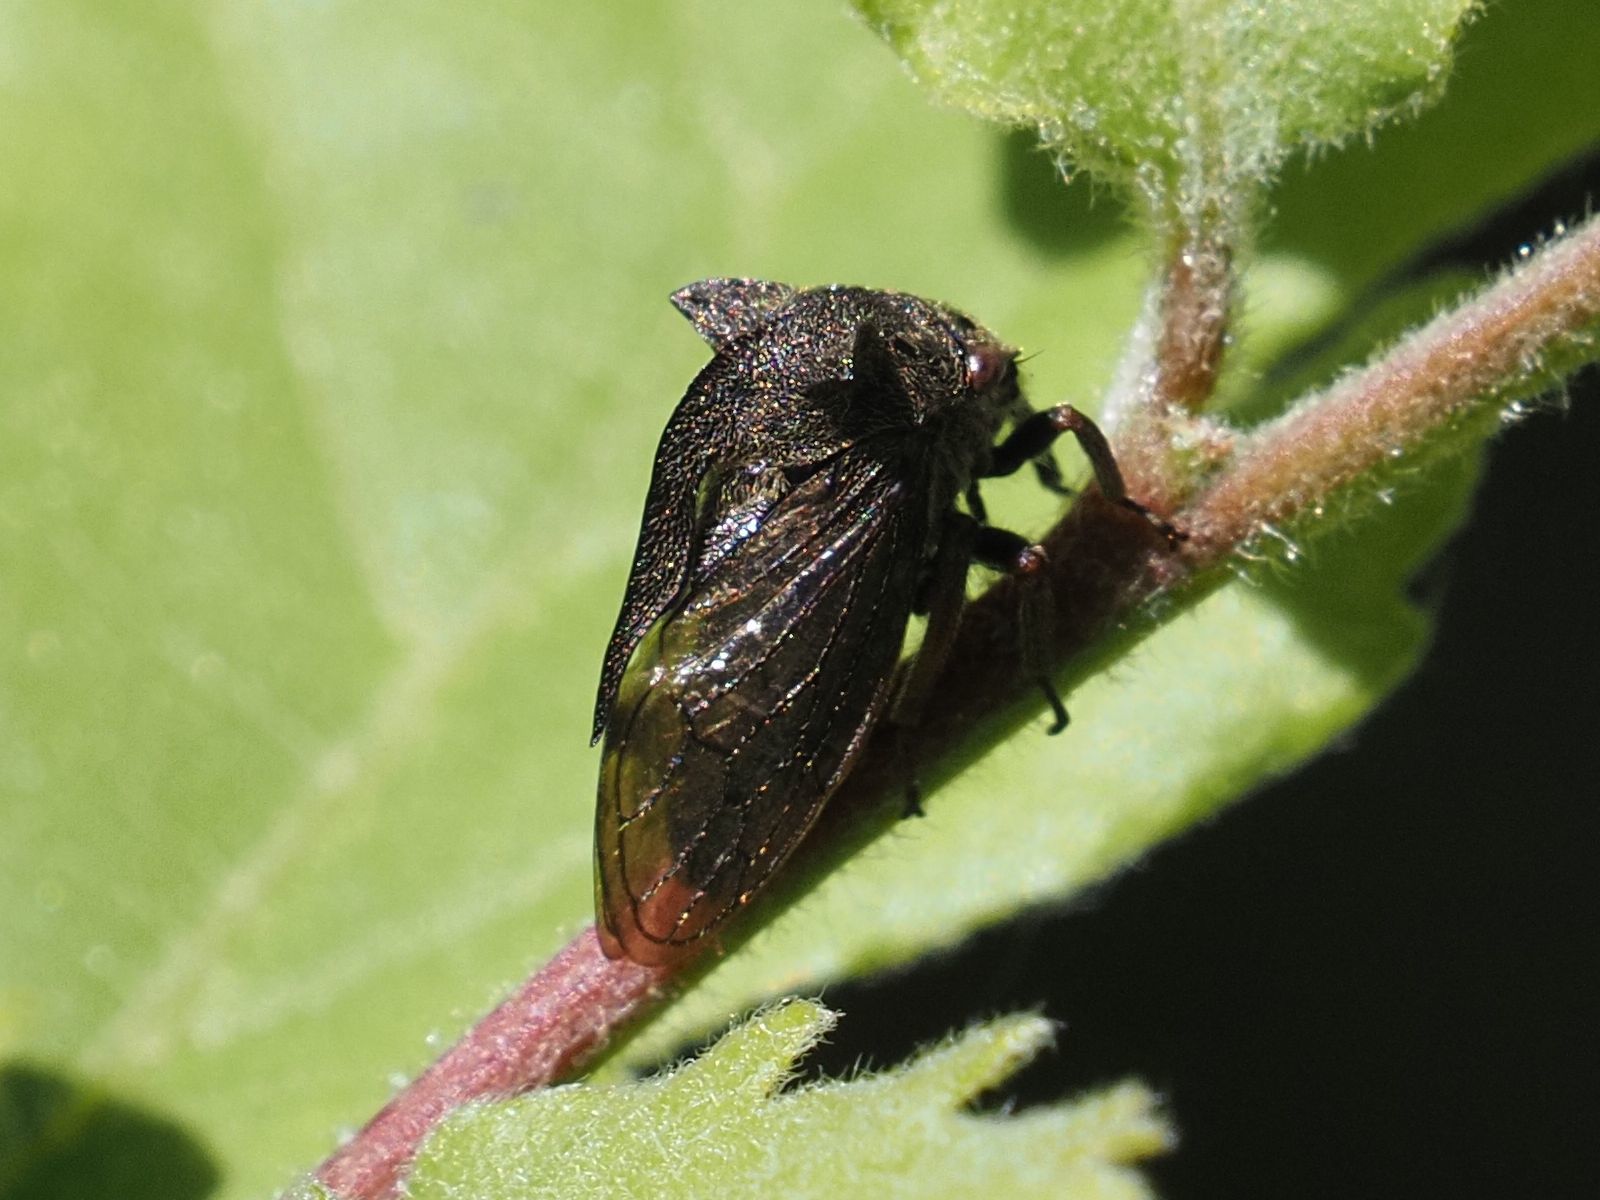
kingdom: Animalia
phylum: Arthropoda
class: Insecta
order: Hemiptera
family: Membracidae
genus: Centrotus
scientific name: Centrotus cornuta
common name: Treehopper
